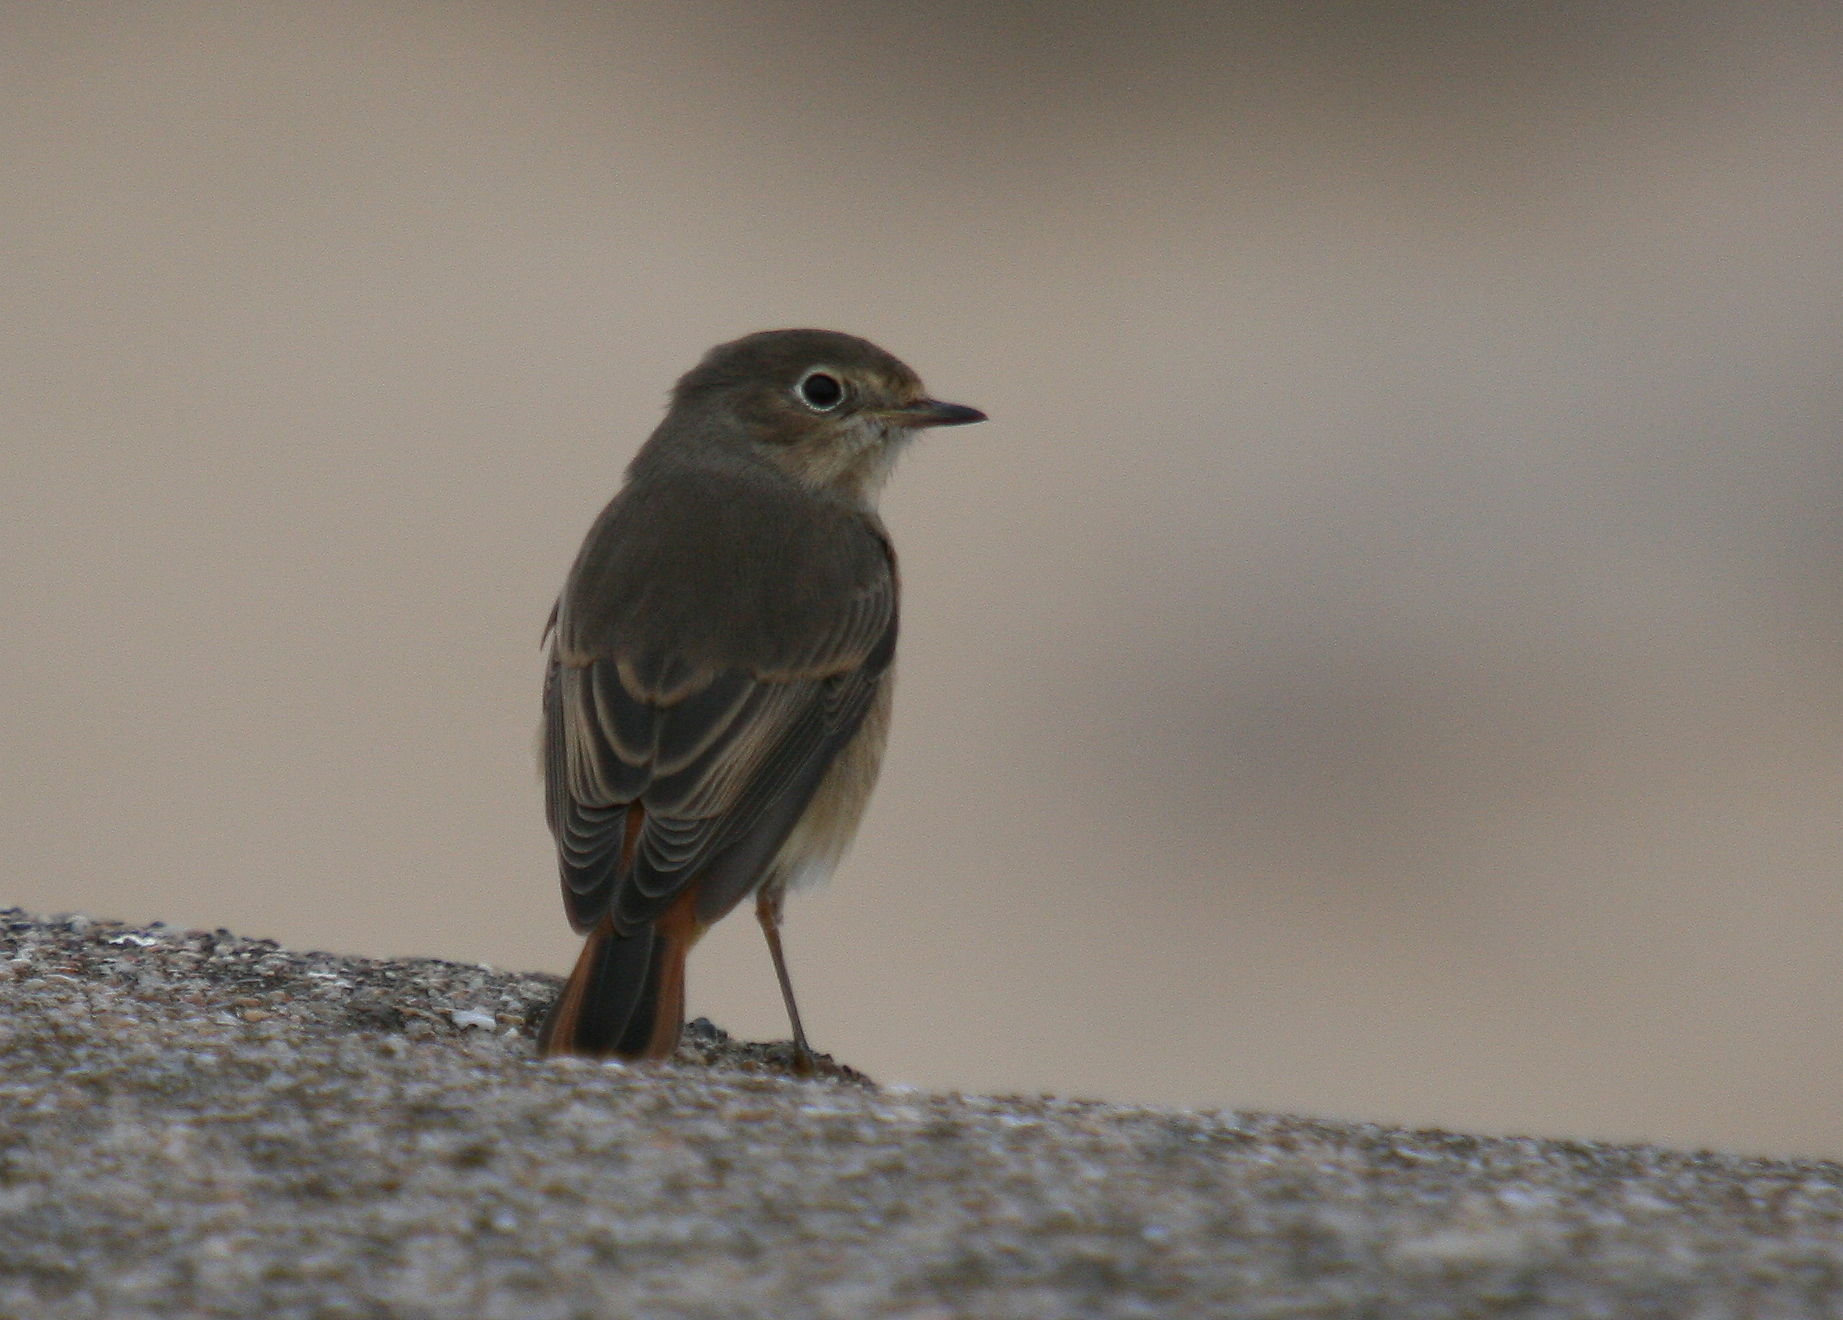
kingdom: Animalia
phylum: Chordata
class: Aves
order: Passeriformes
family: Muscicapidae
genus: Phoenicurus
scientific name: Phoenicurus phoenicurus
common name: Common redstart
